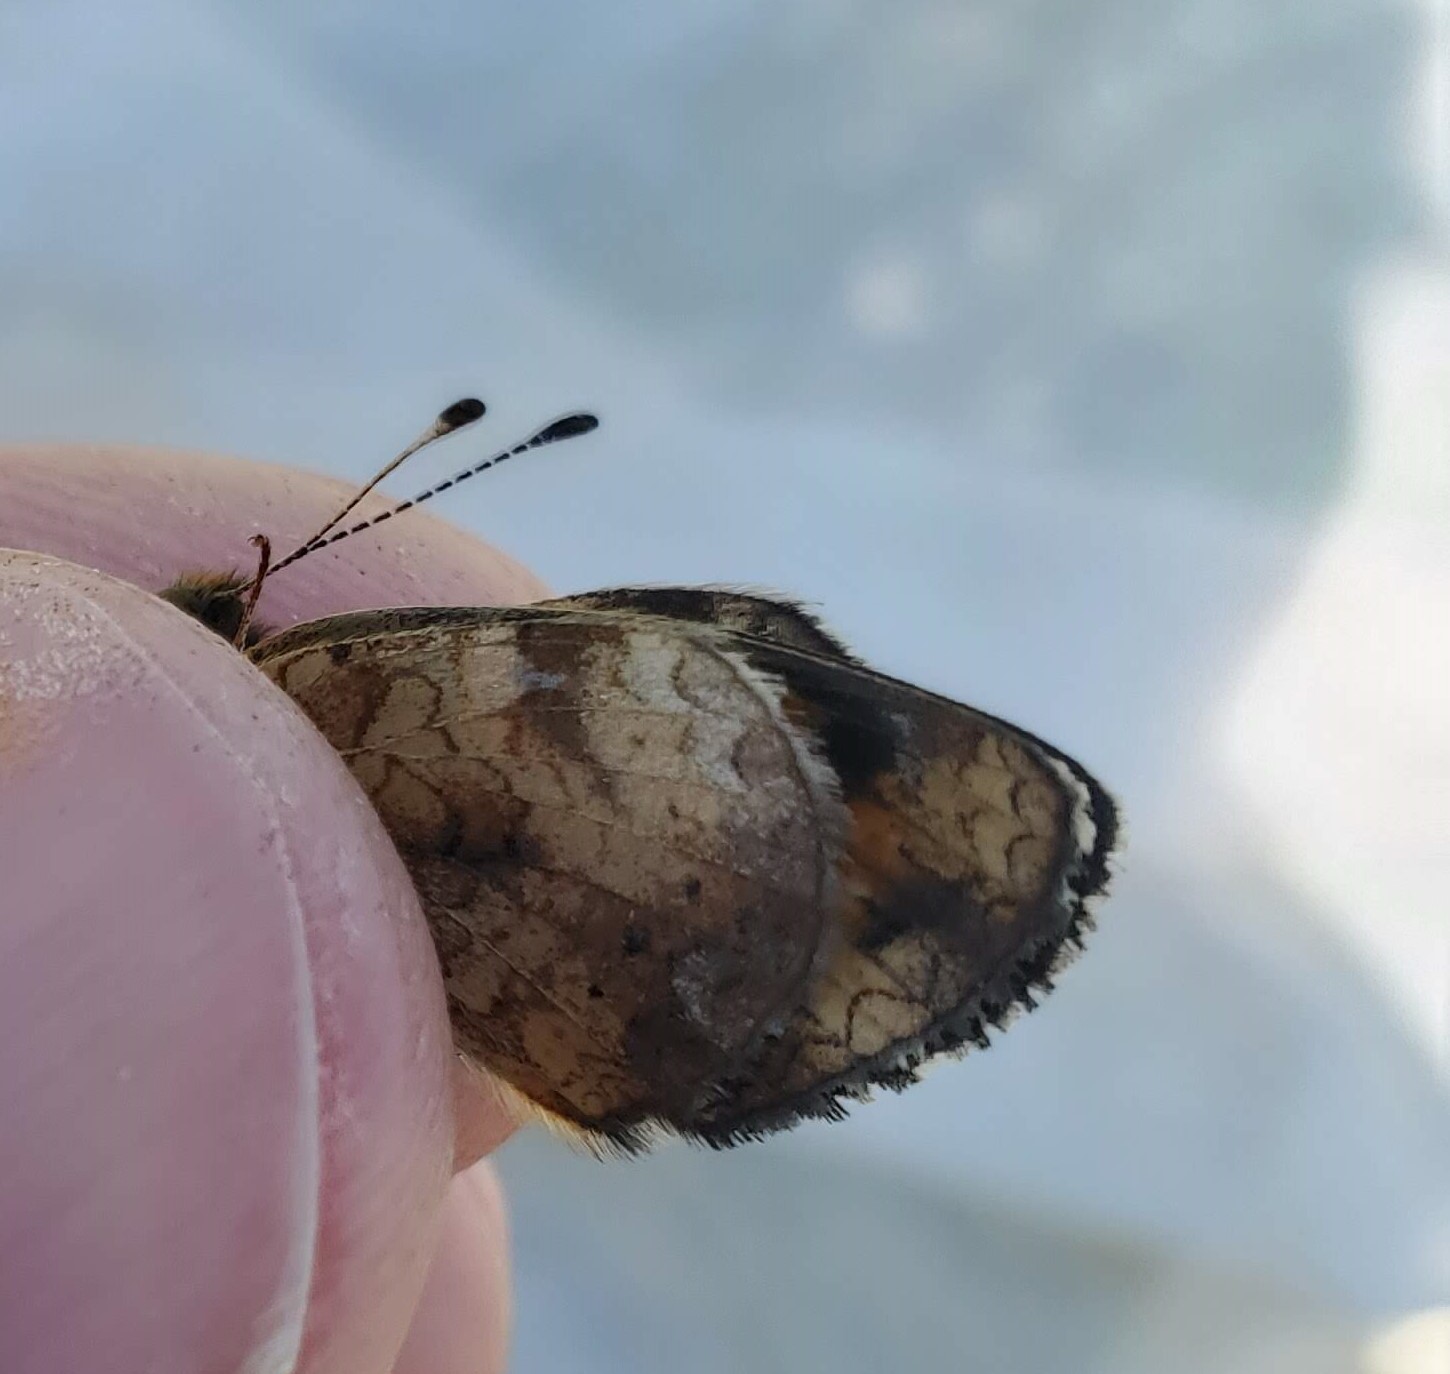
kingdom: Animalia
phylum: Arthropoda
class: Insecta
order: Lepidoptera
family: Nymphalidae
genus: Phyciodes
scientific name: Phyciodes tharos
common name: Pearl crescent
